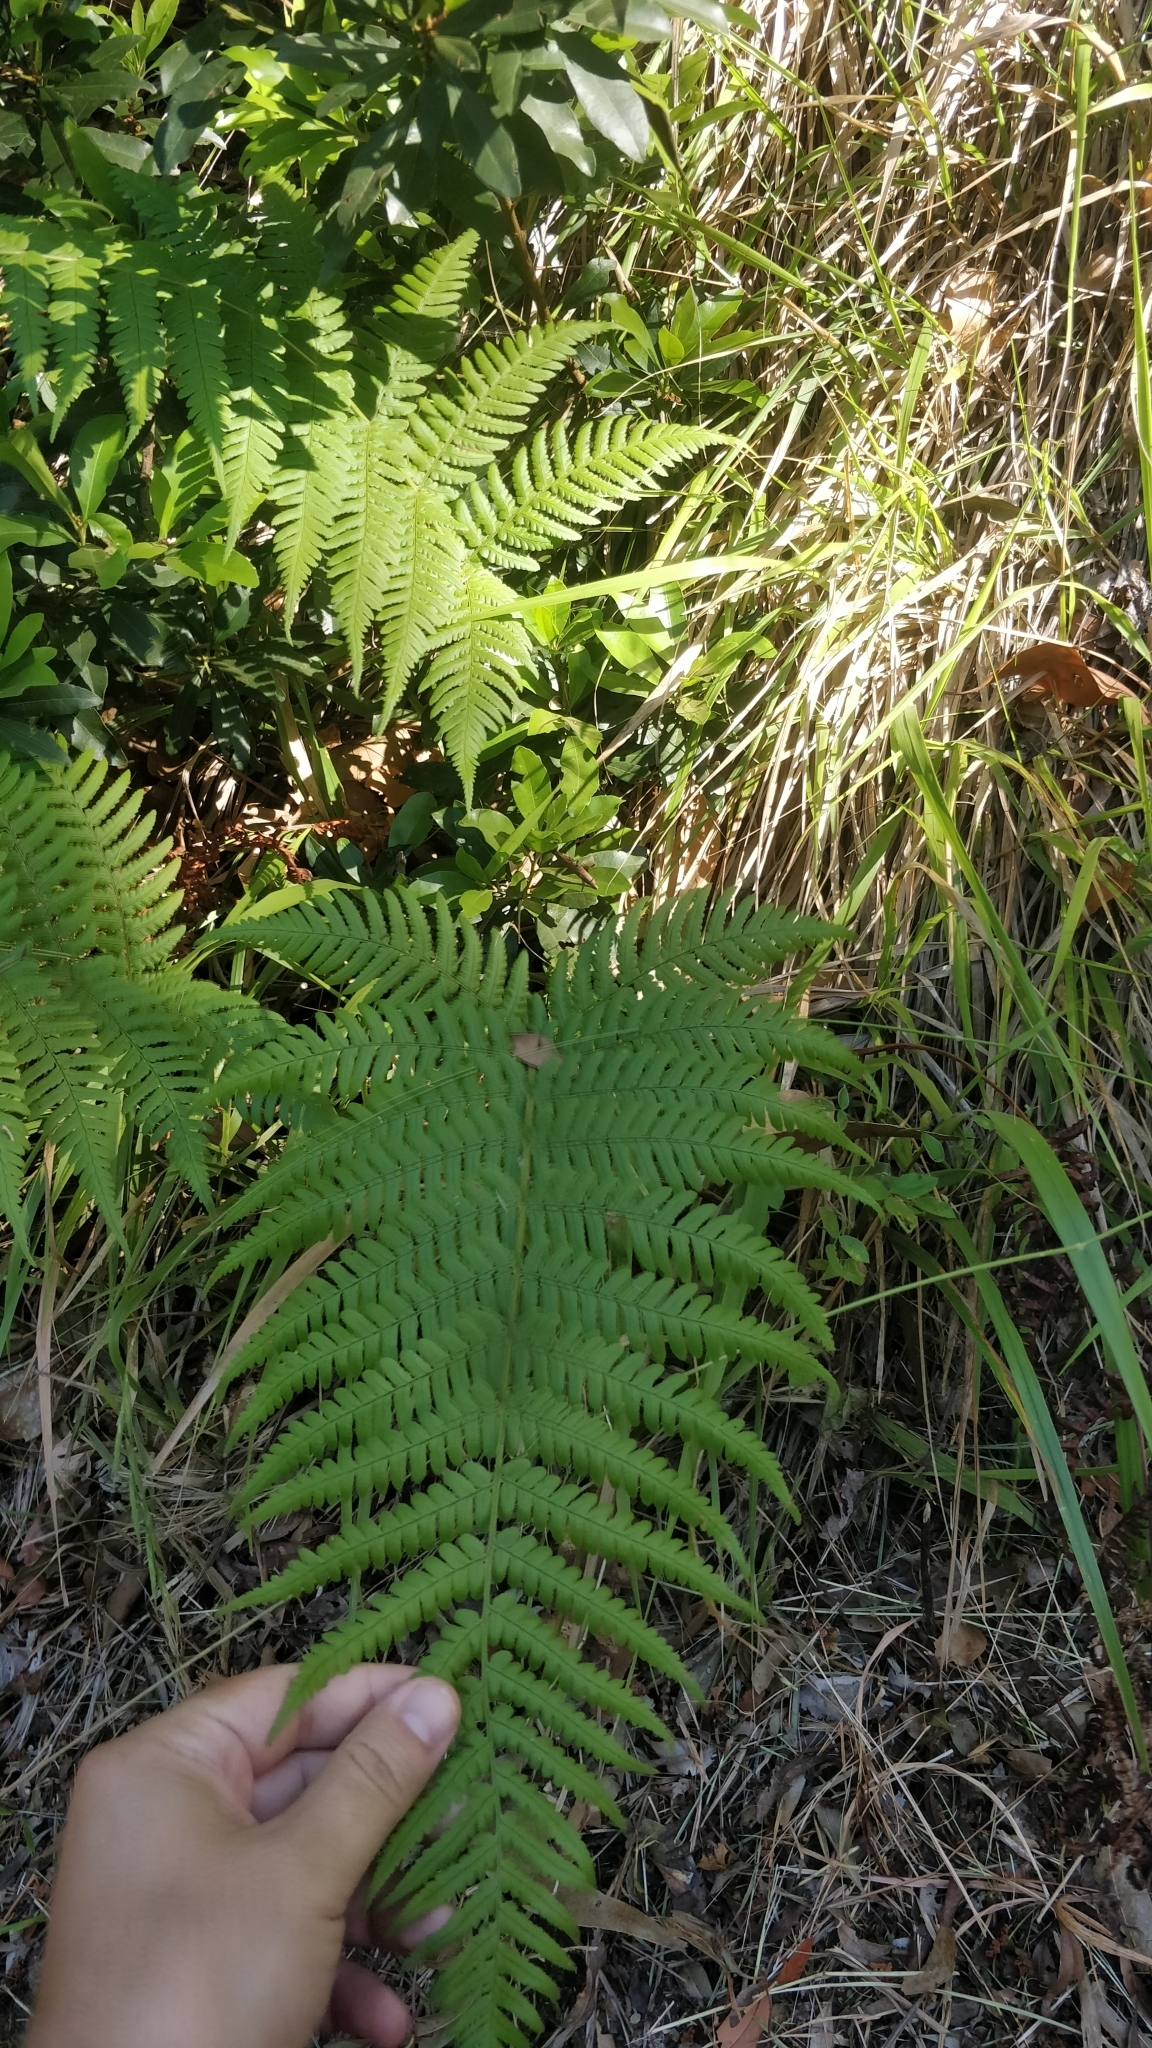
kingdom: Plantae
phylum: Tracheophyta
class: Polypodiopsida
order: Polypodiales
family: Dryopteridaceae
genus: Dryopteris
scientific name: Dryopteris aitoniana
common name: Aiton's buckler-fern
